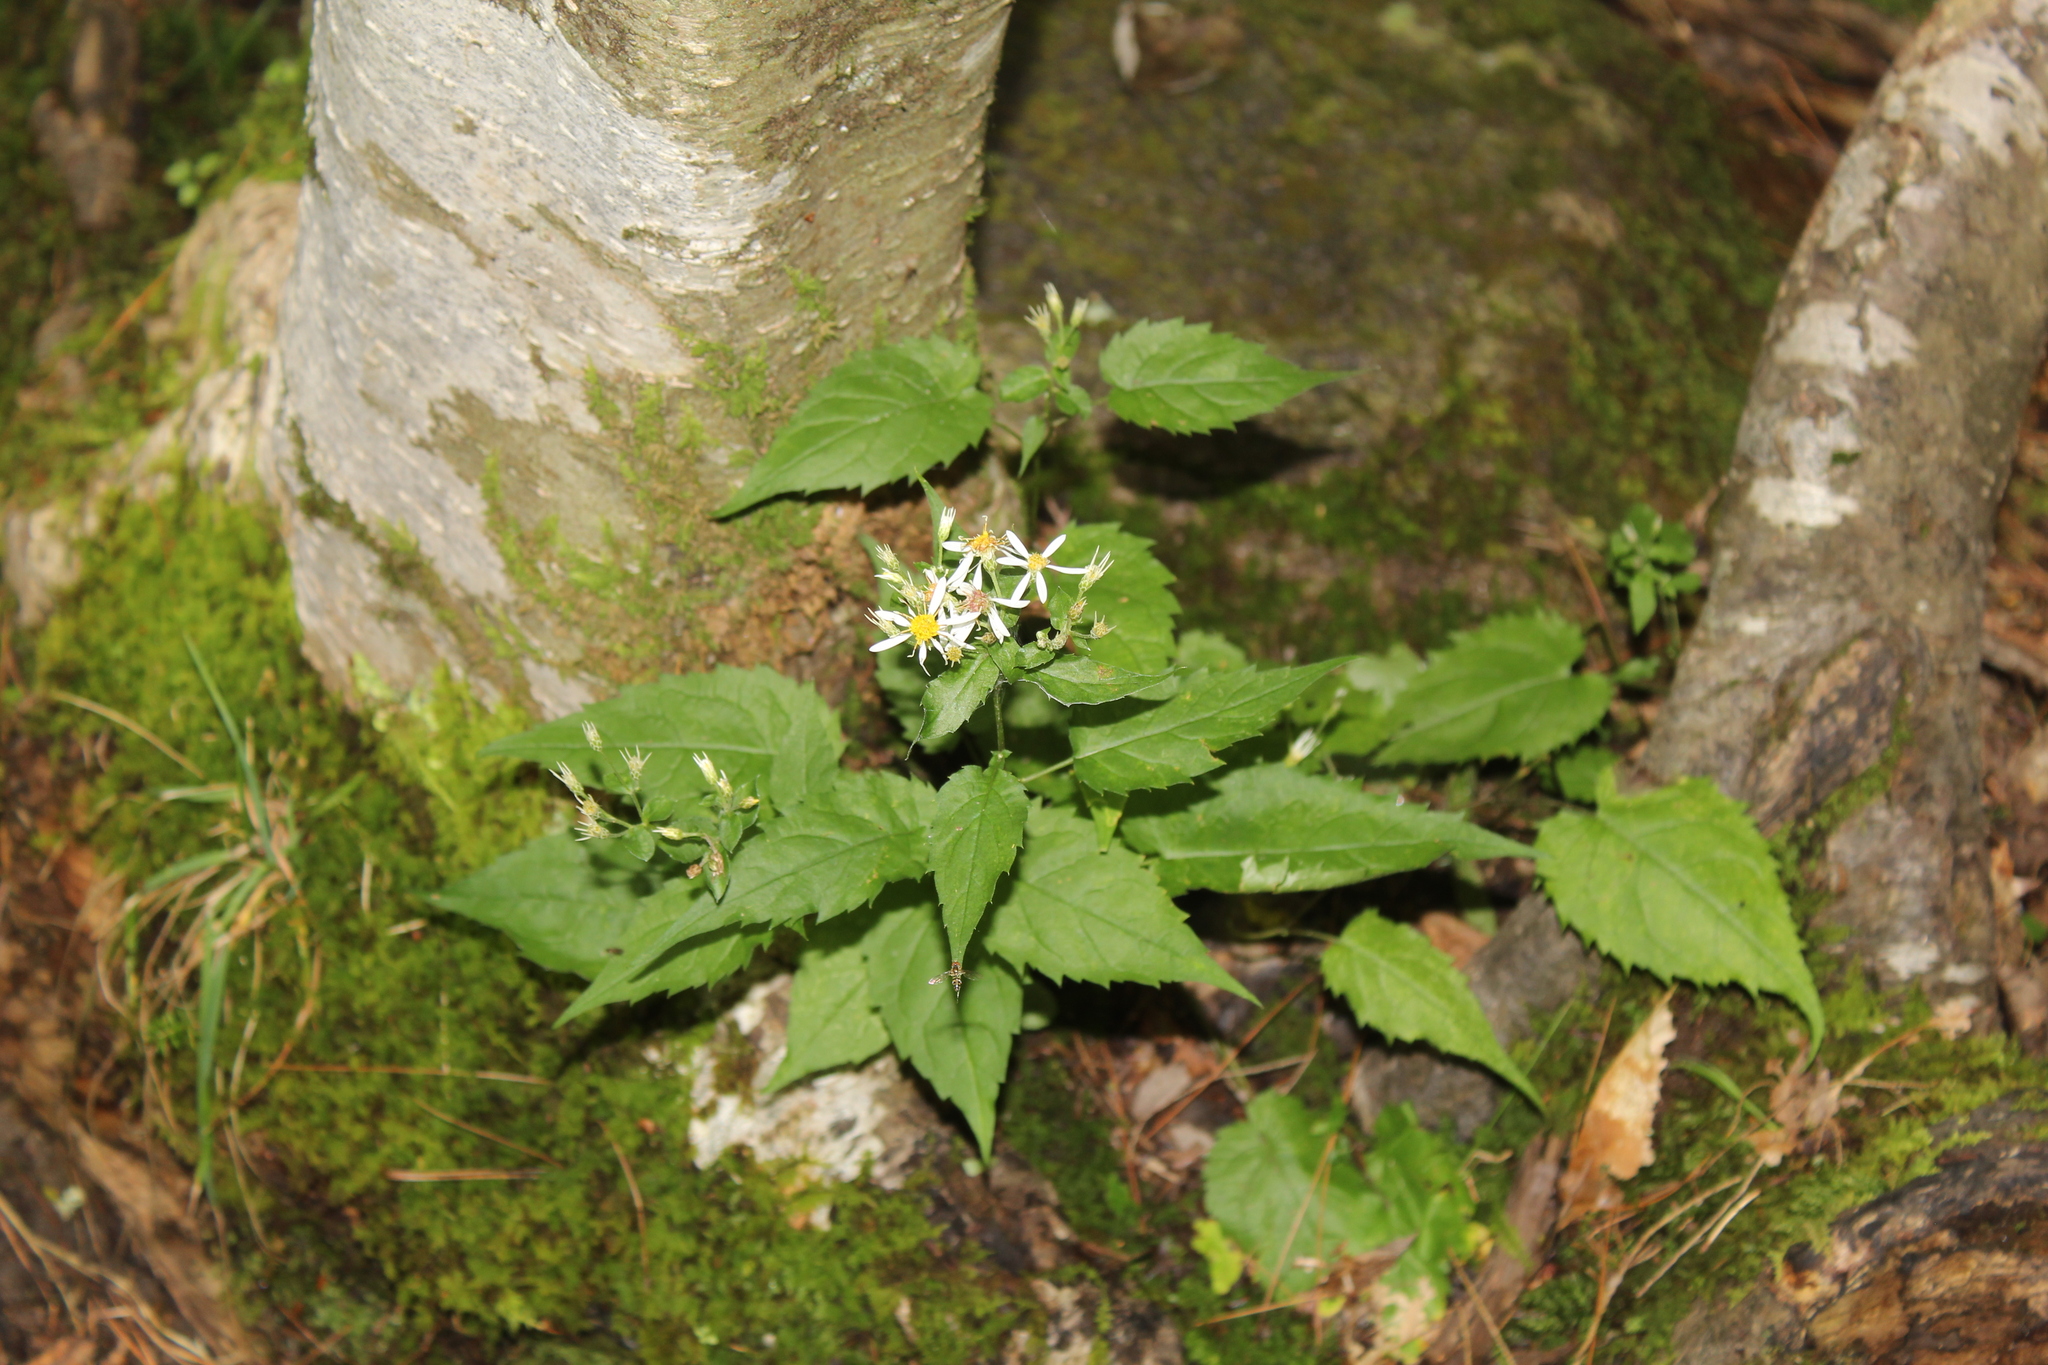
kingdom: Plantae
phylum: Tracheophyta
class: Magnoliopsida
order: Asterales
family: Asteraceae
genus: Eurybia
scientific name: Eurybia divaricata
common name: White wood aster
